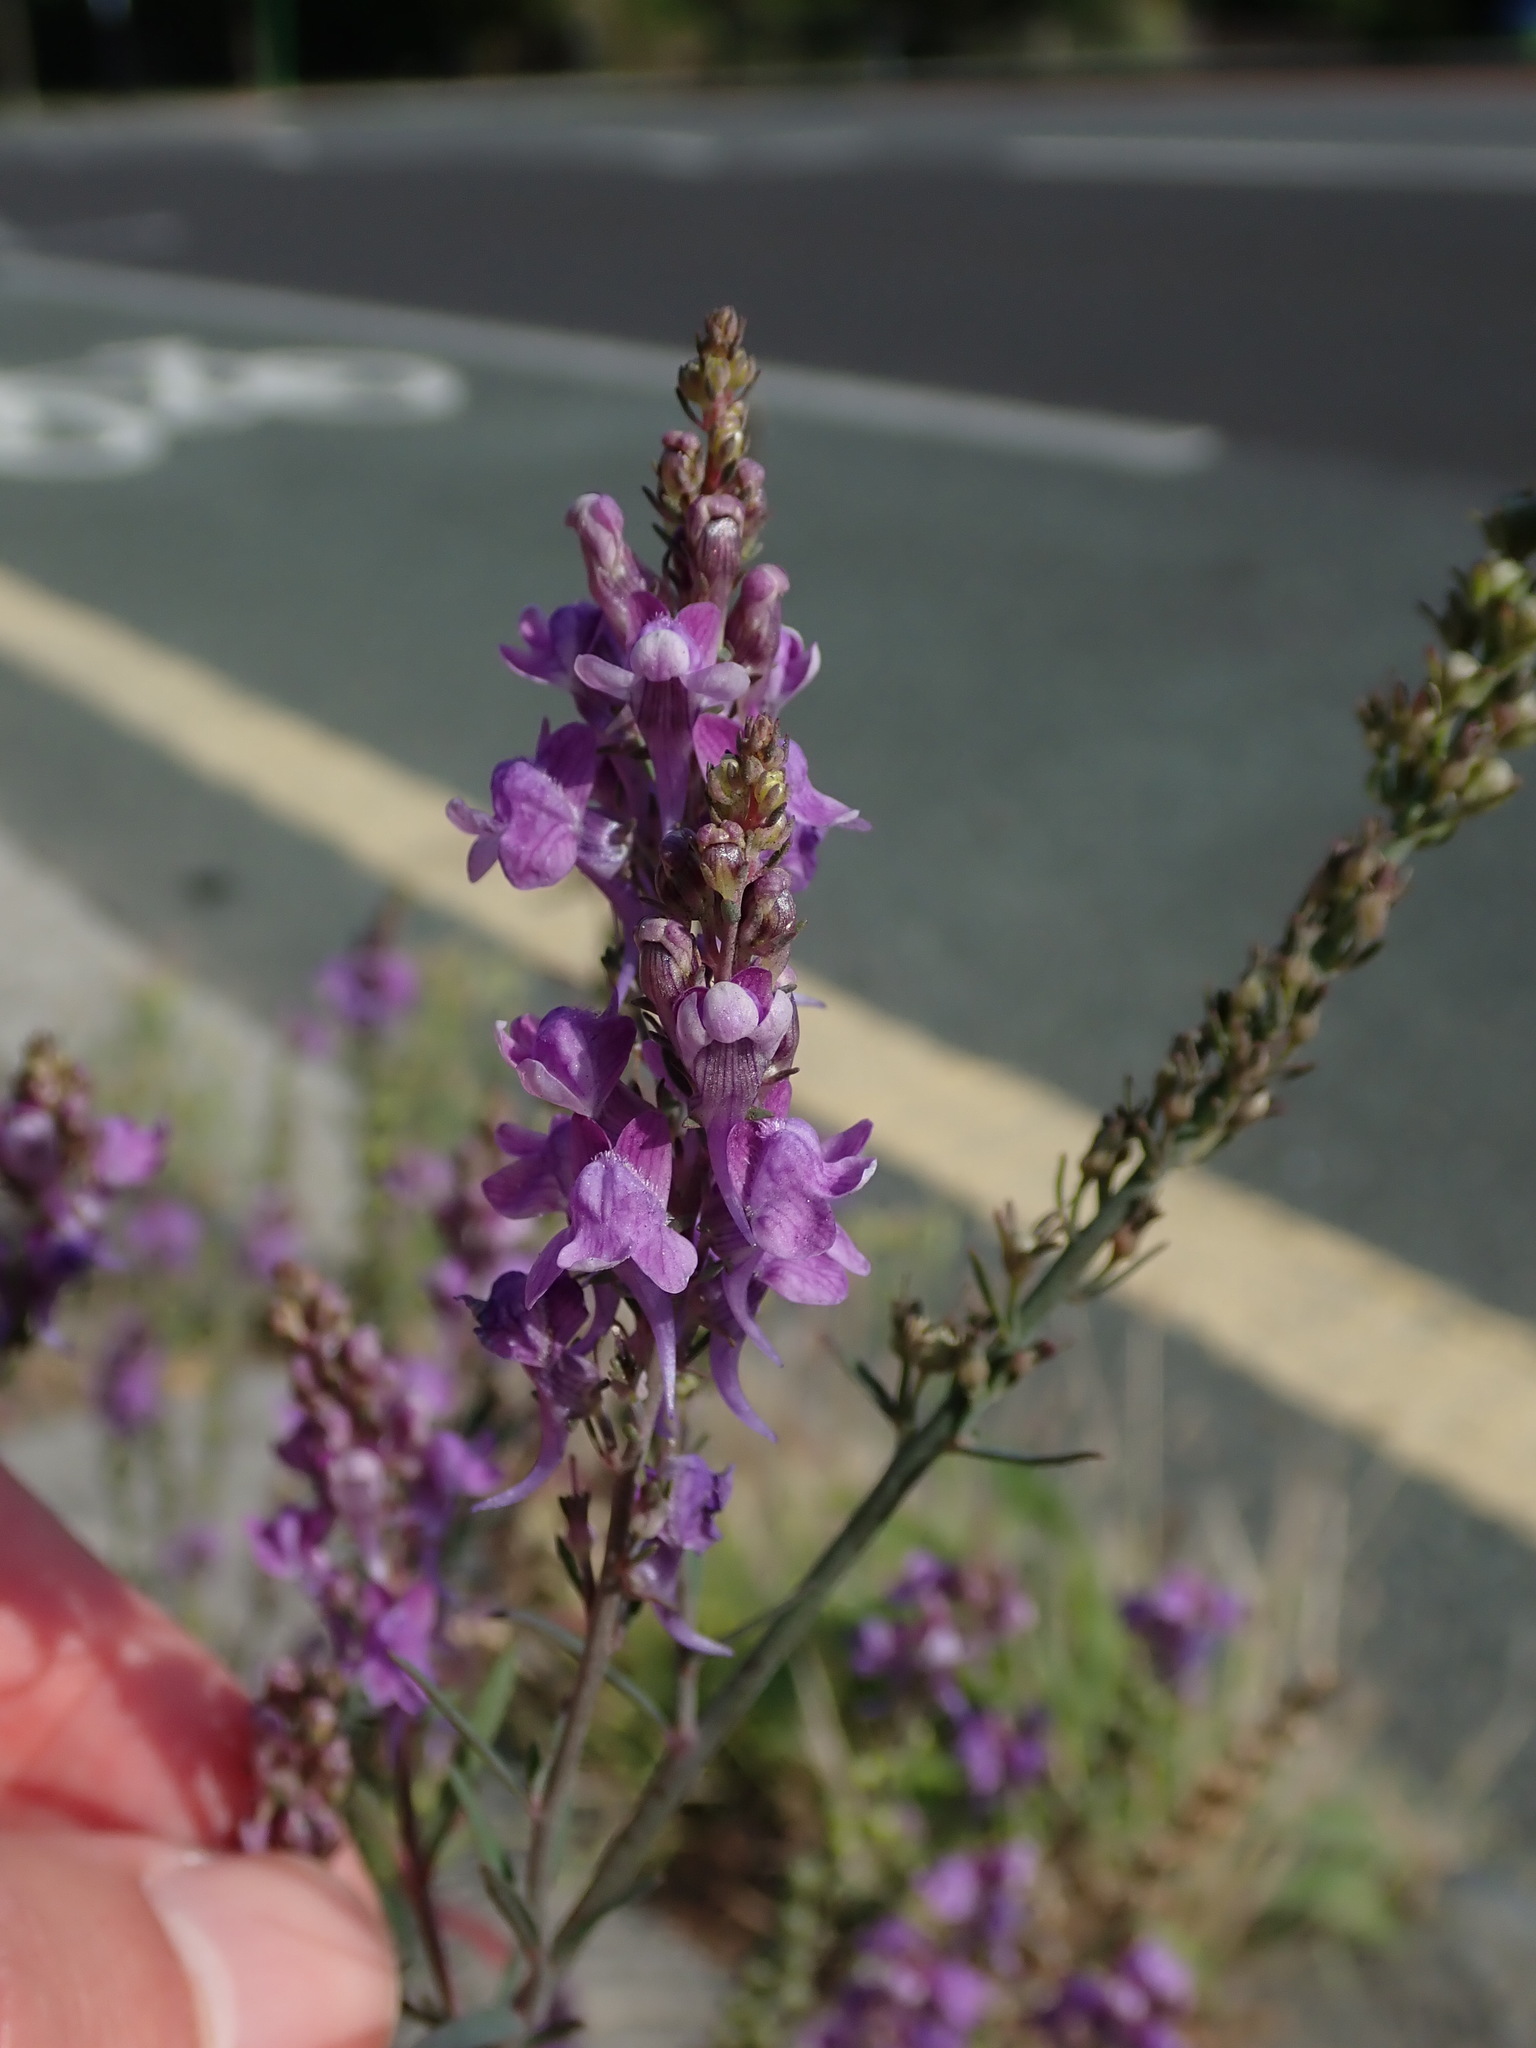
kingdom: Plantae
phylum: Tracheophyta
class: Magnoliopsida
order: Lamiales
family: Plantaginaceae
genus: Linaria
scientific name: Linaria purpurea
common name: Purple toadflax
